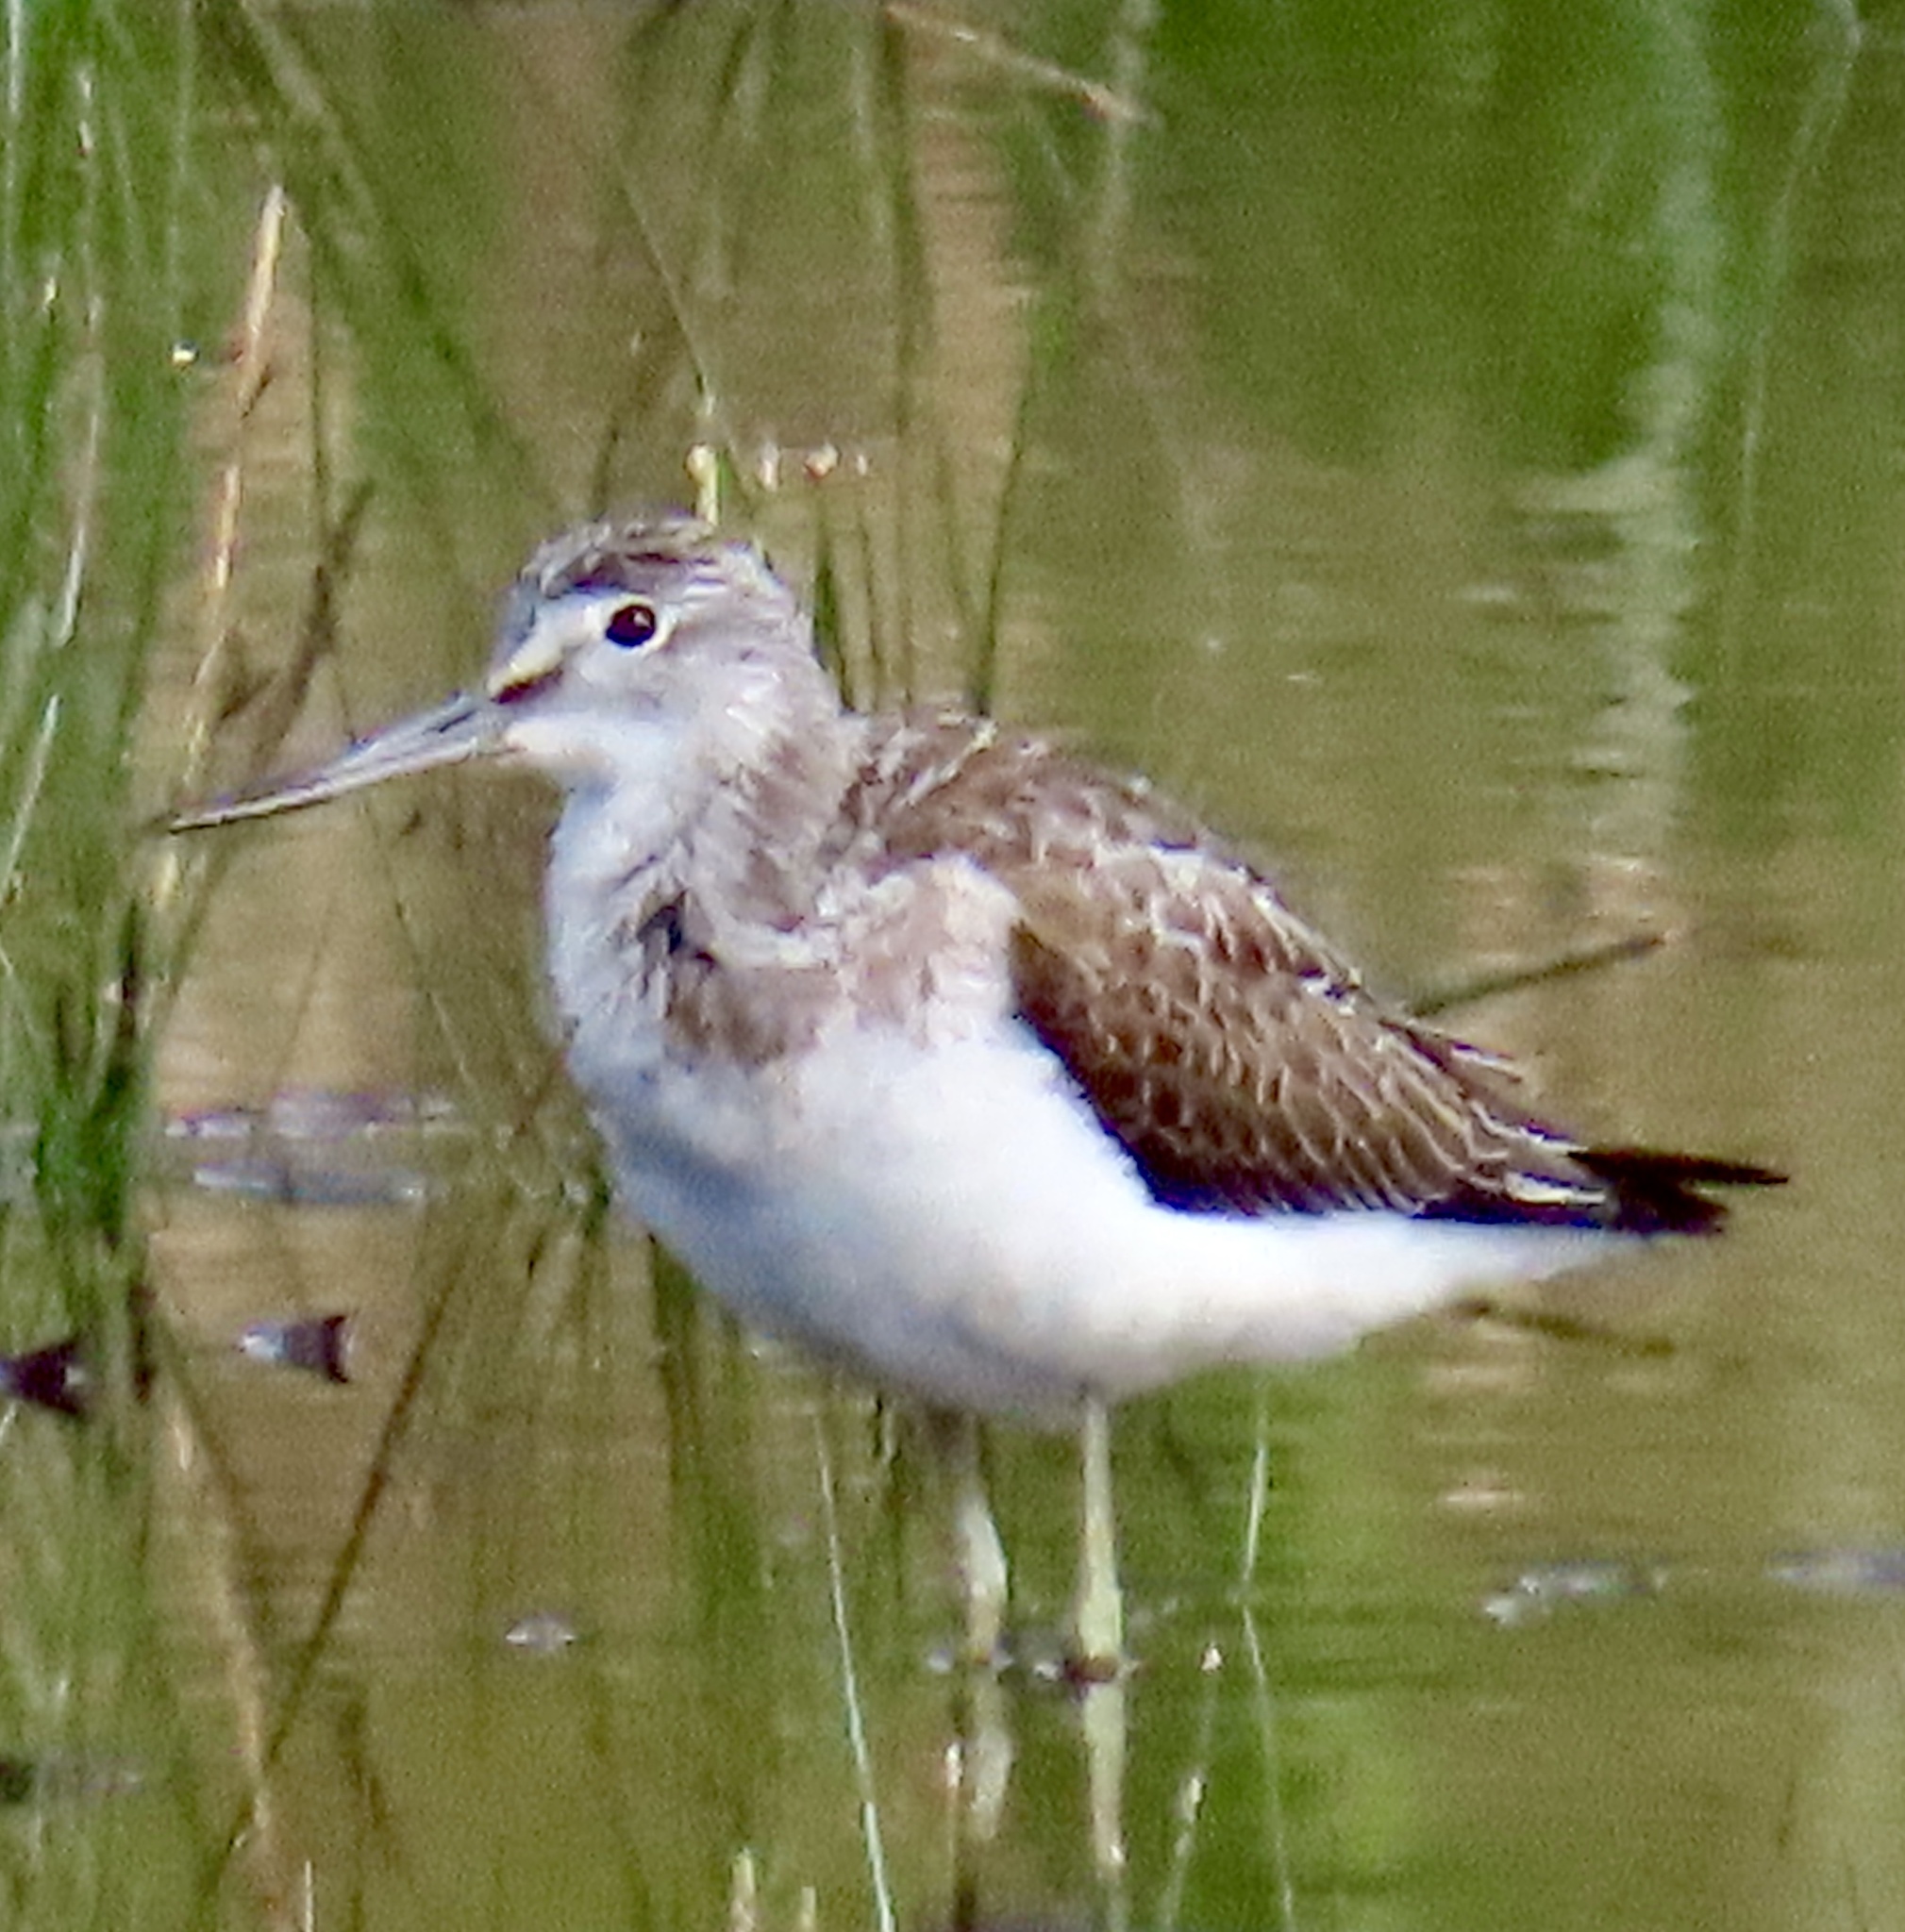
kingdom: Animalia
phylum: Chordata
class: Aves
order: Charadriiformes
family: Scolopacidae
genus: Tringa
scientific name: Tringa nebularia
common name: Common greenshank
